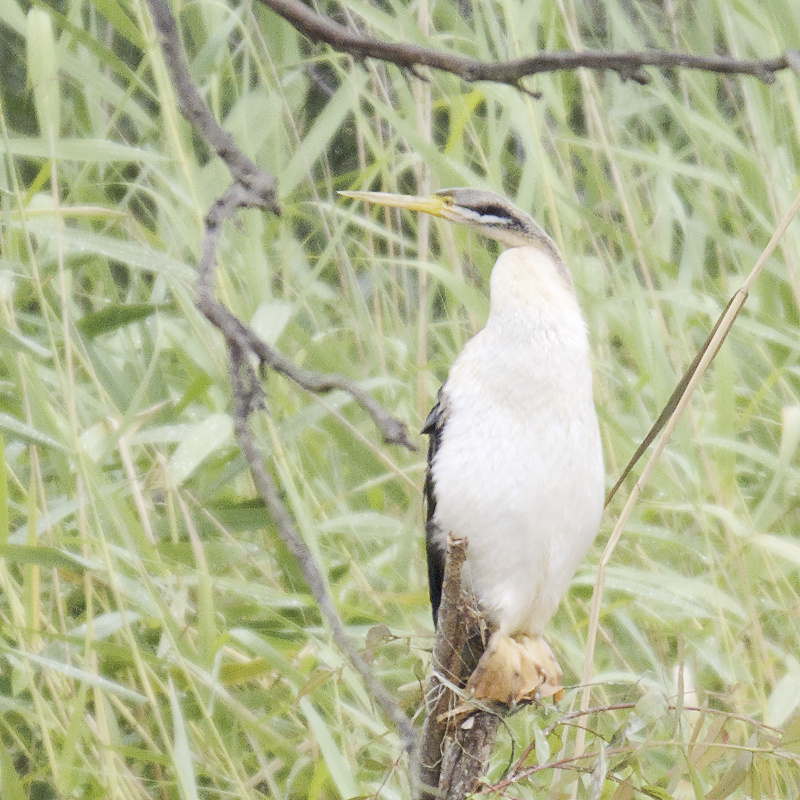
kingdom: Animalia
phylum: Chordata
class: Aves
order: Suliformes
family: Anhingidae
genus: Anhinga
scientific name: Anhinga novaehollandiae
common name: Australasian darter
